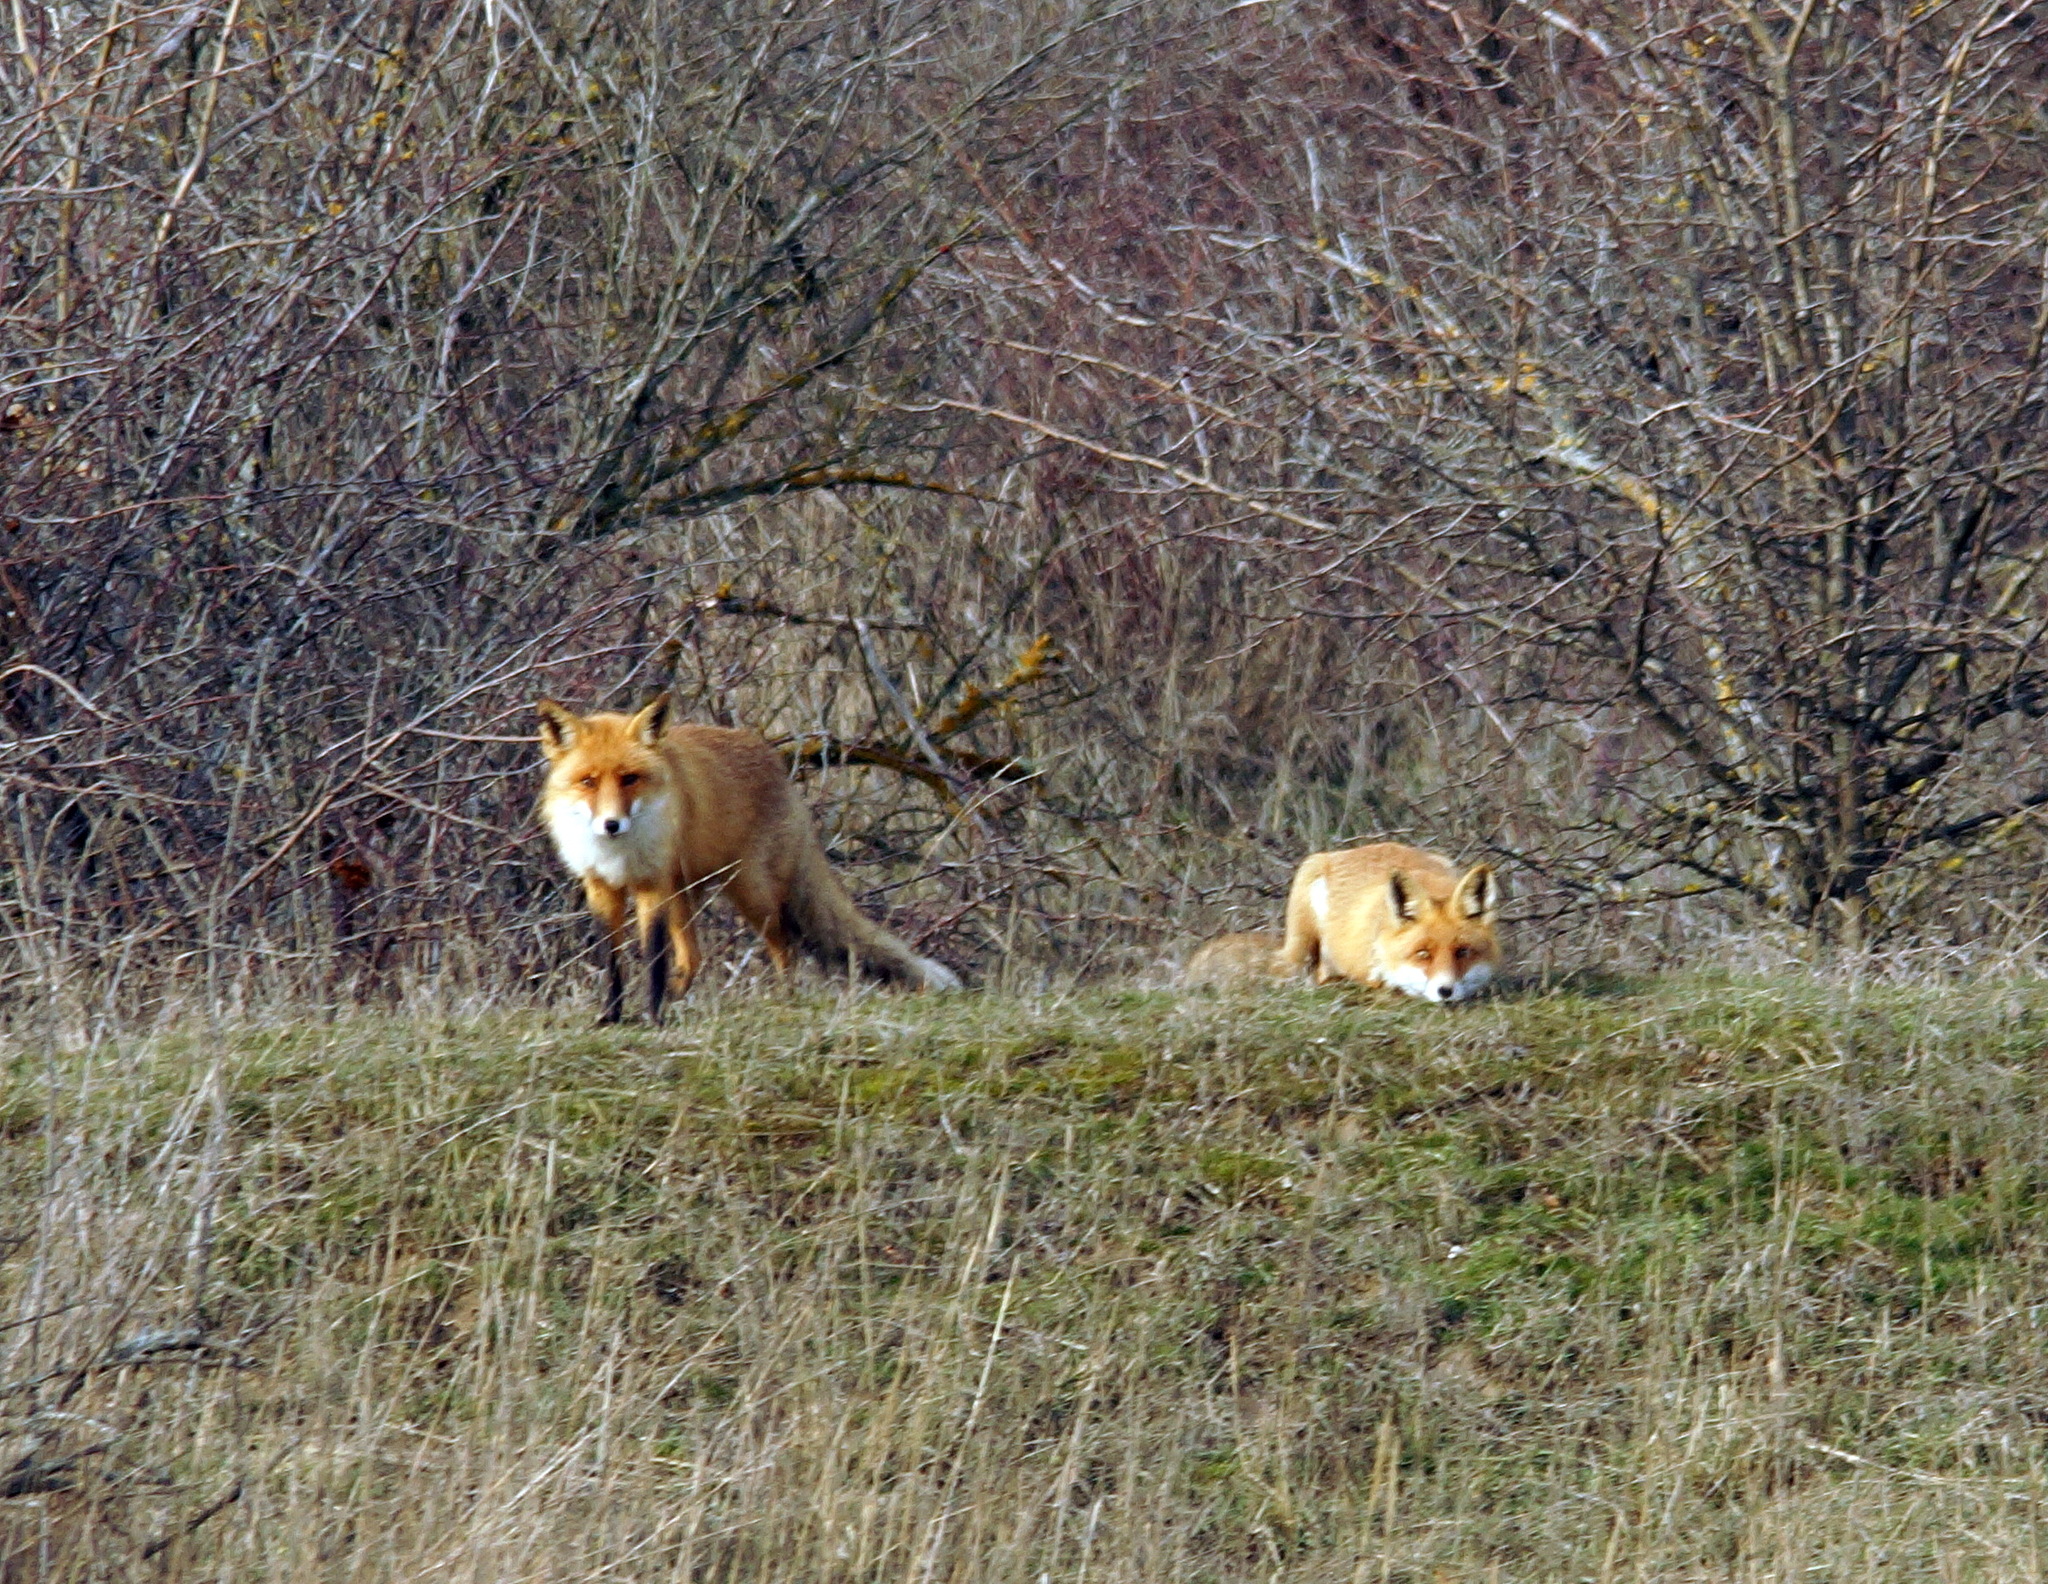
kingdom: Animalia
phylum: Chordata
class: Mammalia
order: Carnivora
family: Canidae
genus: Vulpes
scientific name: Vulpes vulpes
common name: Red fox
